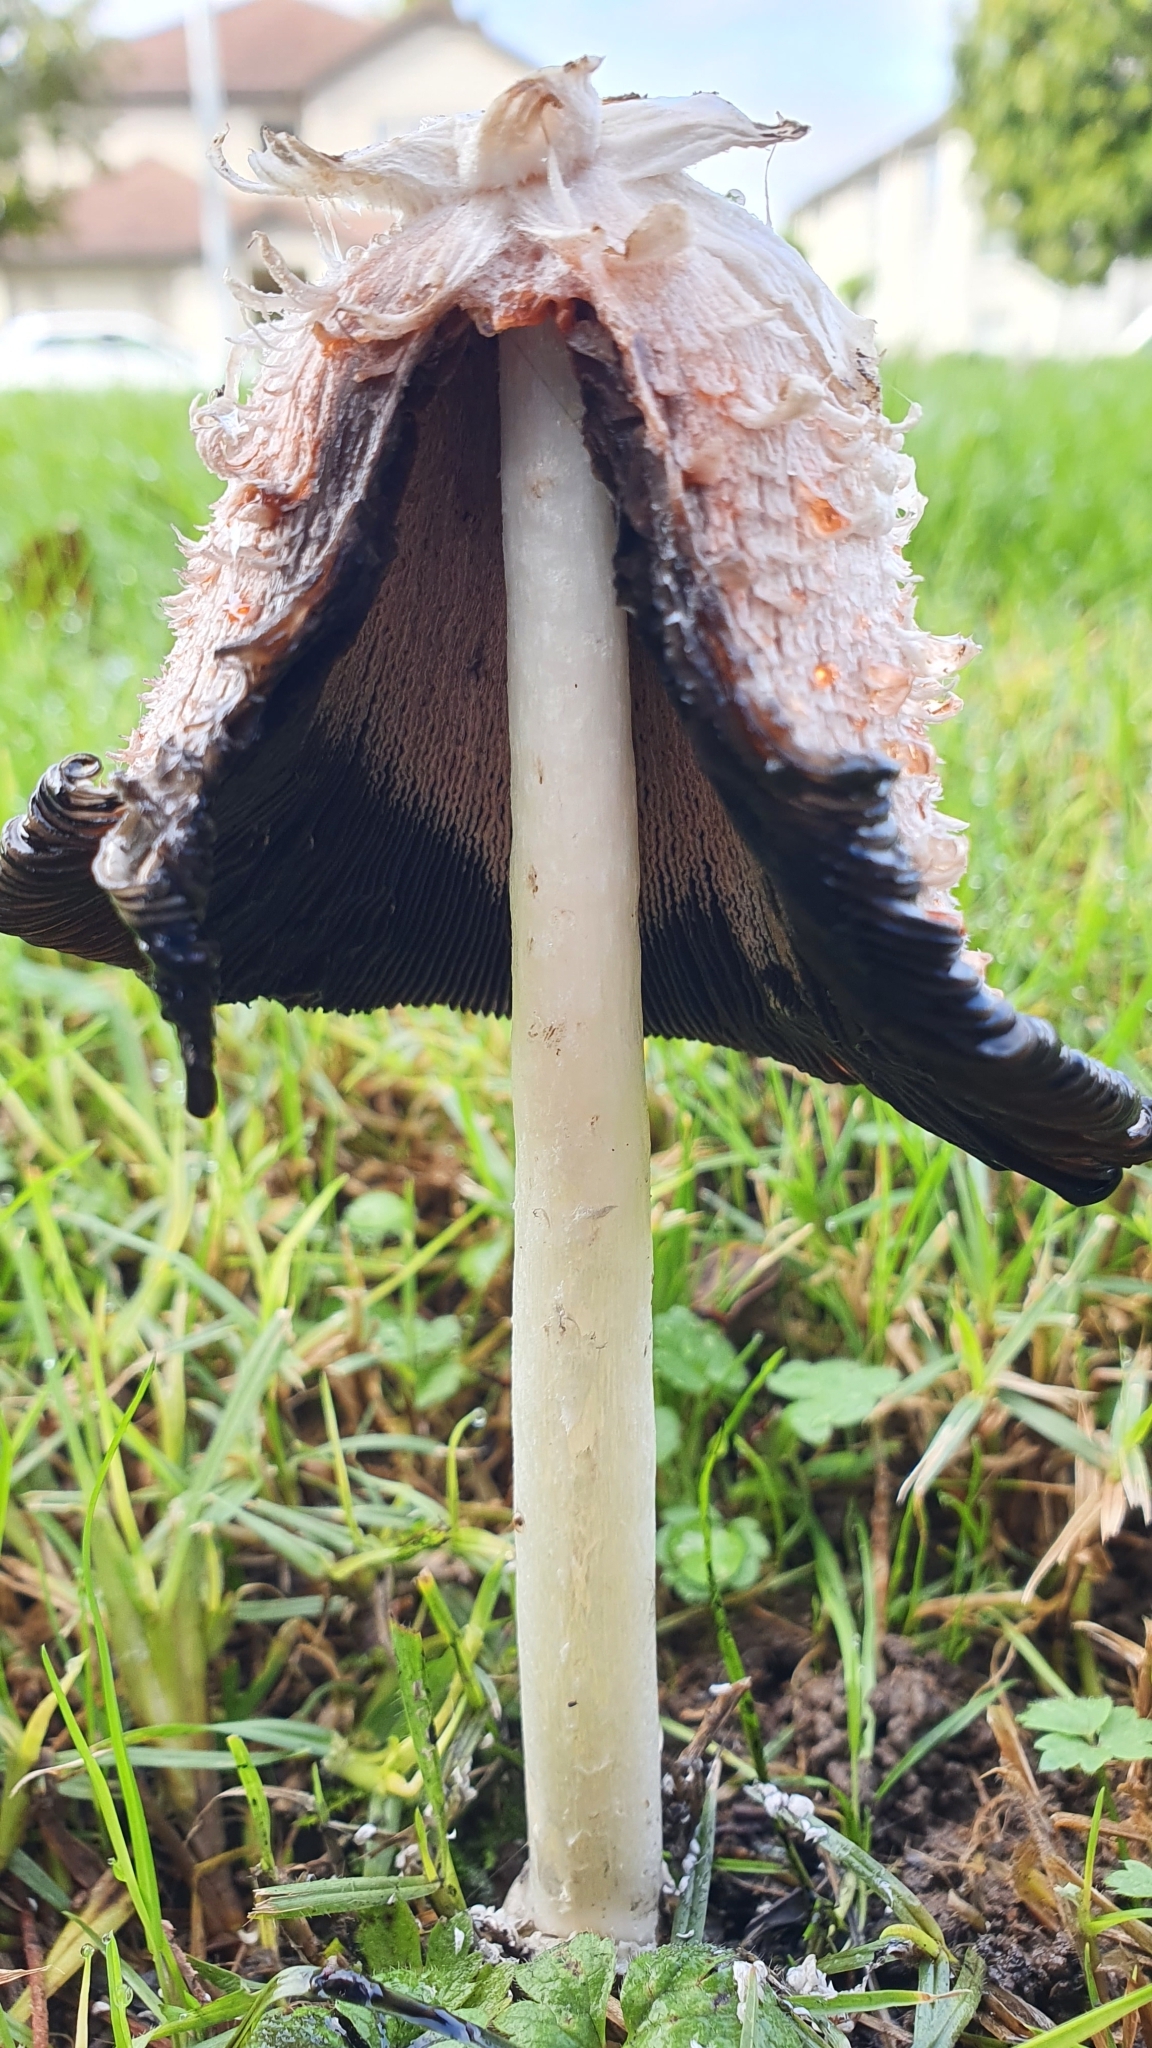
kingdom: Fungi
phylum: Basidiomycota
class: Agaricomycetes
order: Agaricales
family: Agaricaceae
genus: Coprinus
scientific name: Coprinus comatus
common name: Lawyer's wig
